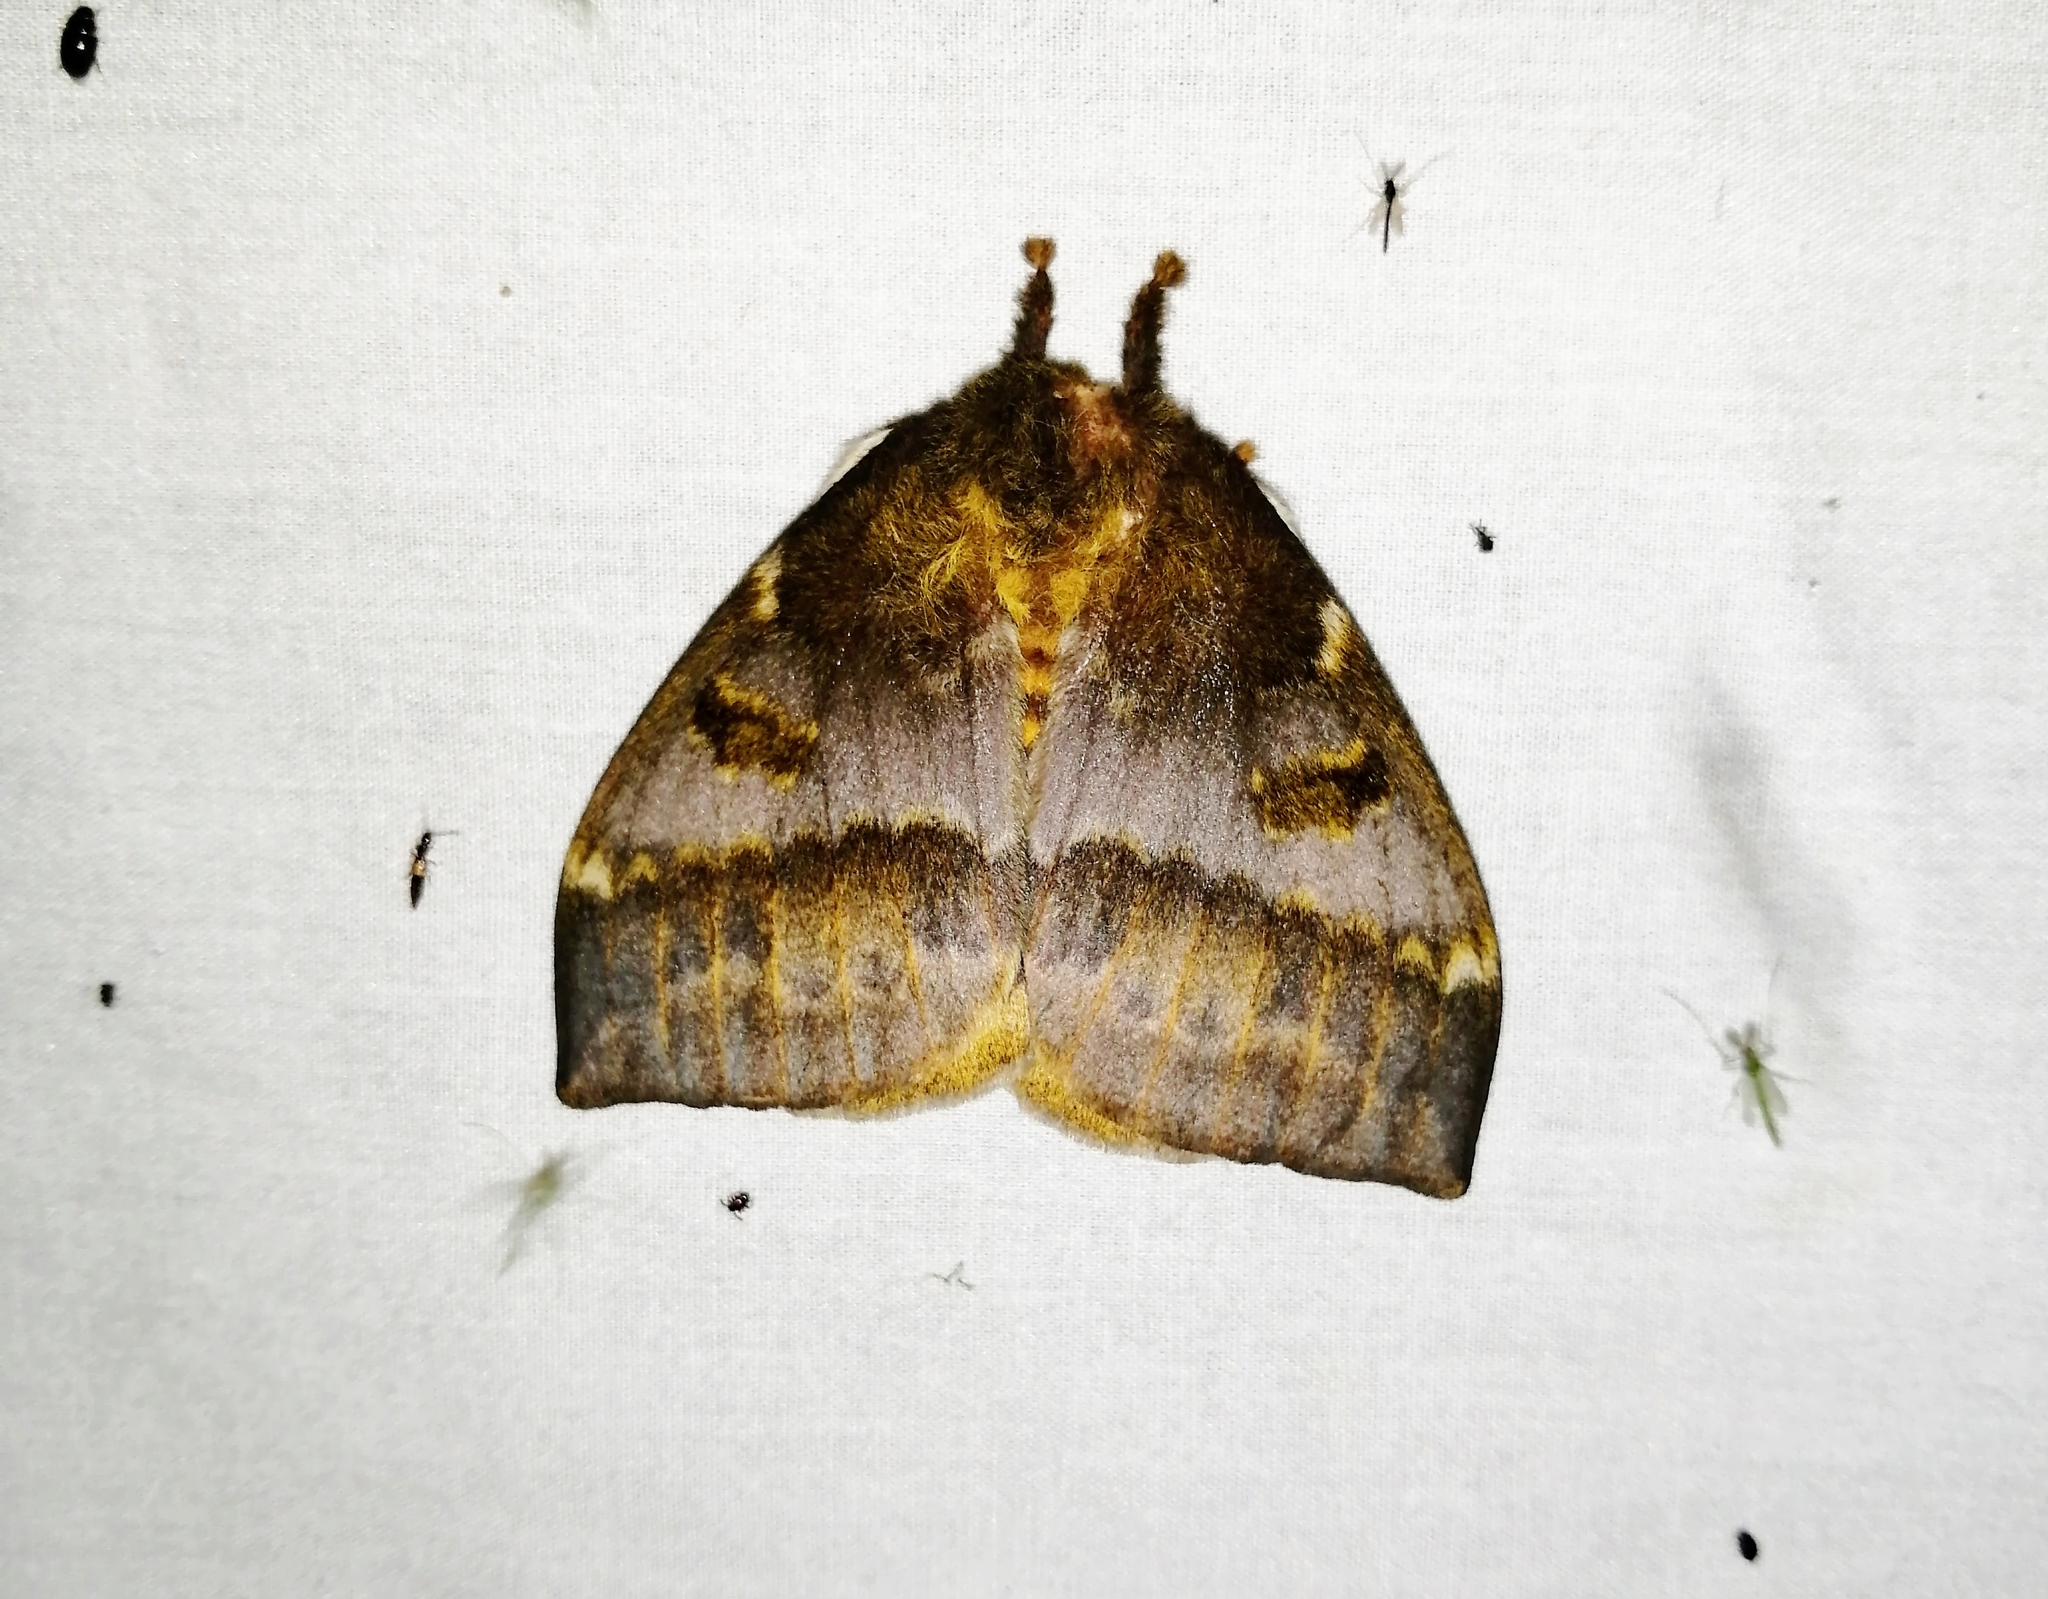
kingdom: Animalia
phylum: Arthropoda
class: Insecta
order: Lepidoptera
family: Saturniidae
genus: Automeris
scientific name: Automeris io
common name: Io moth
